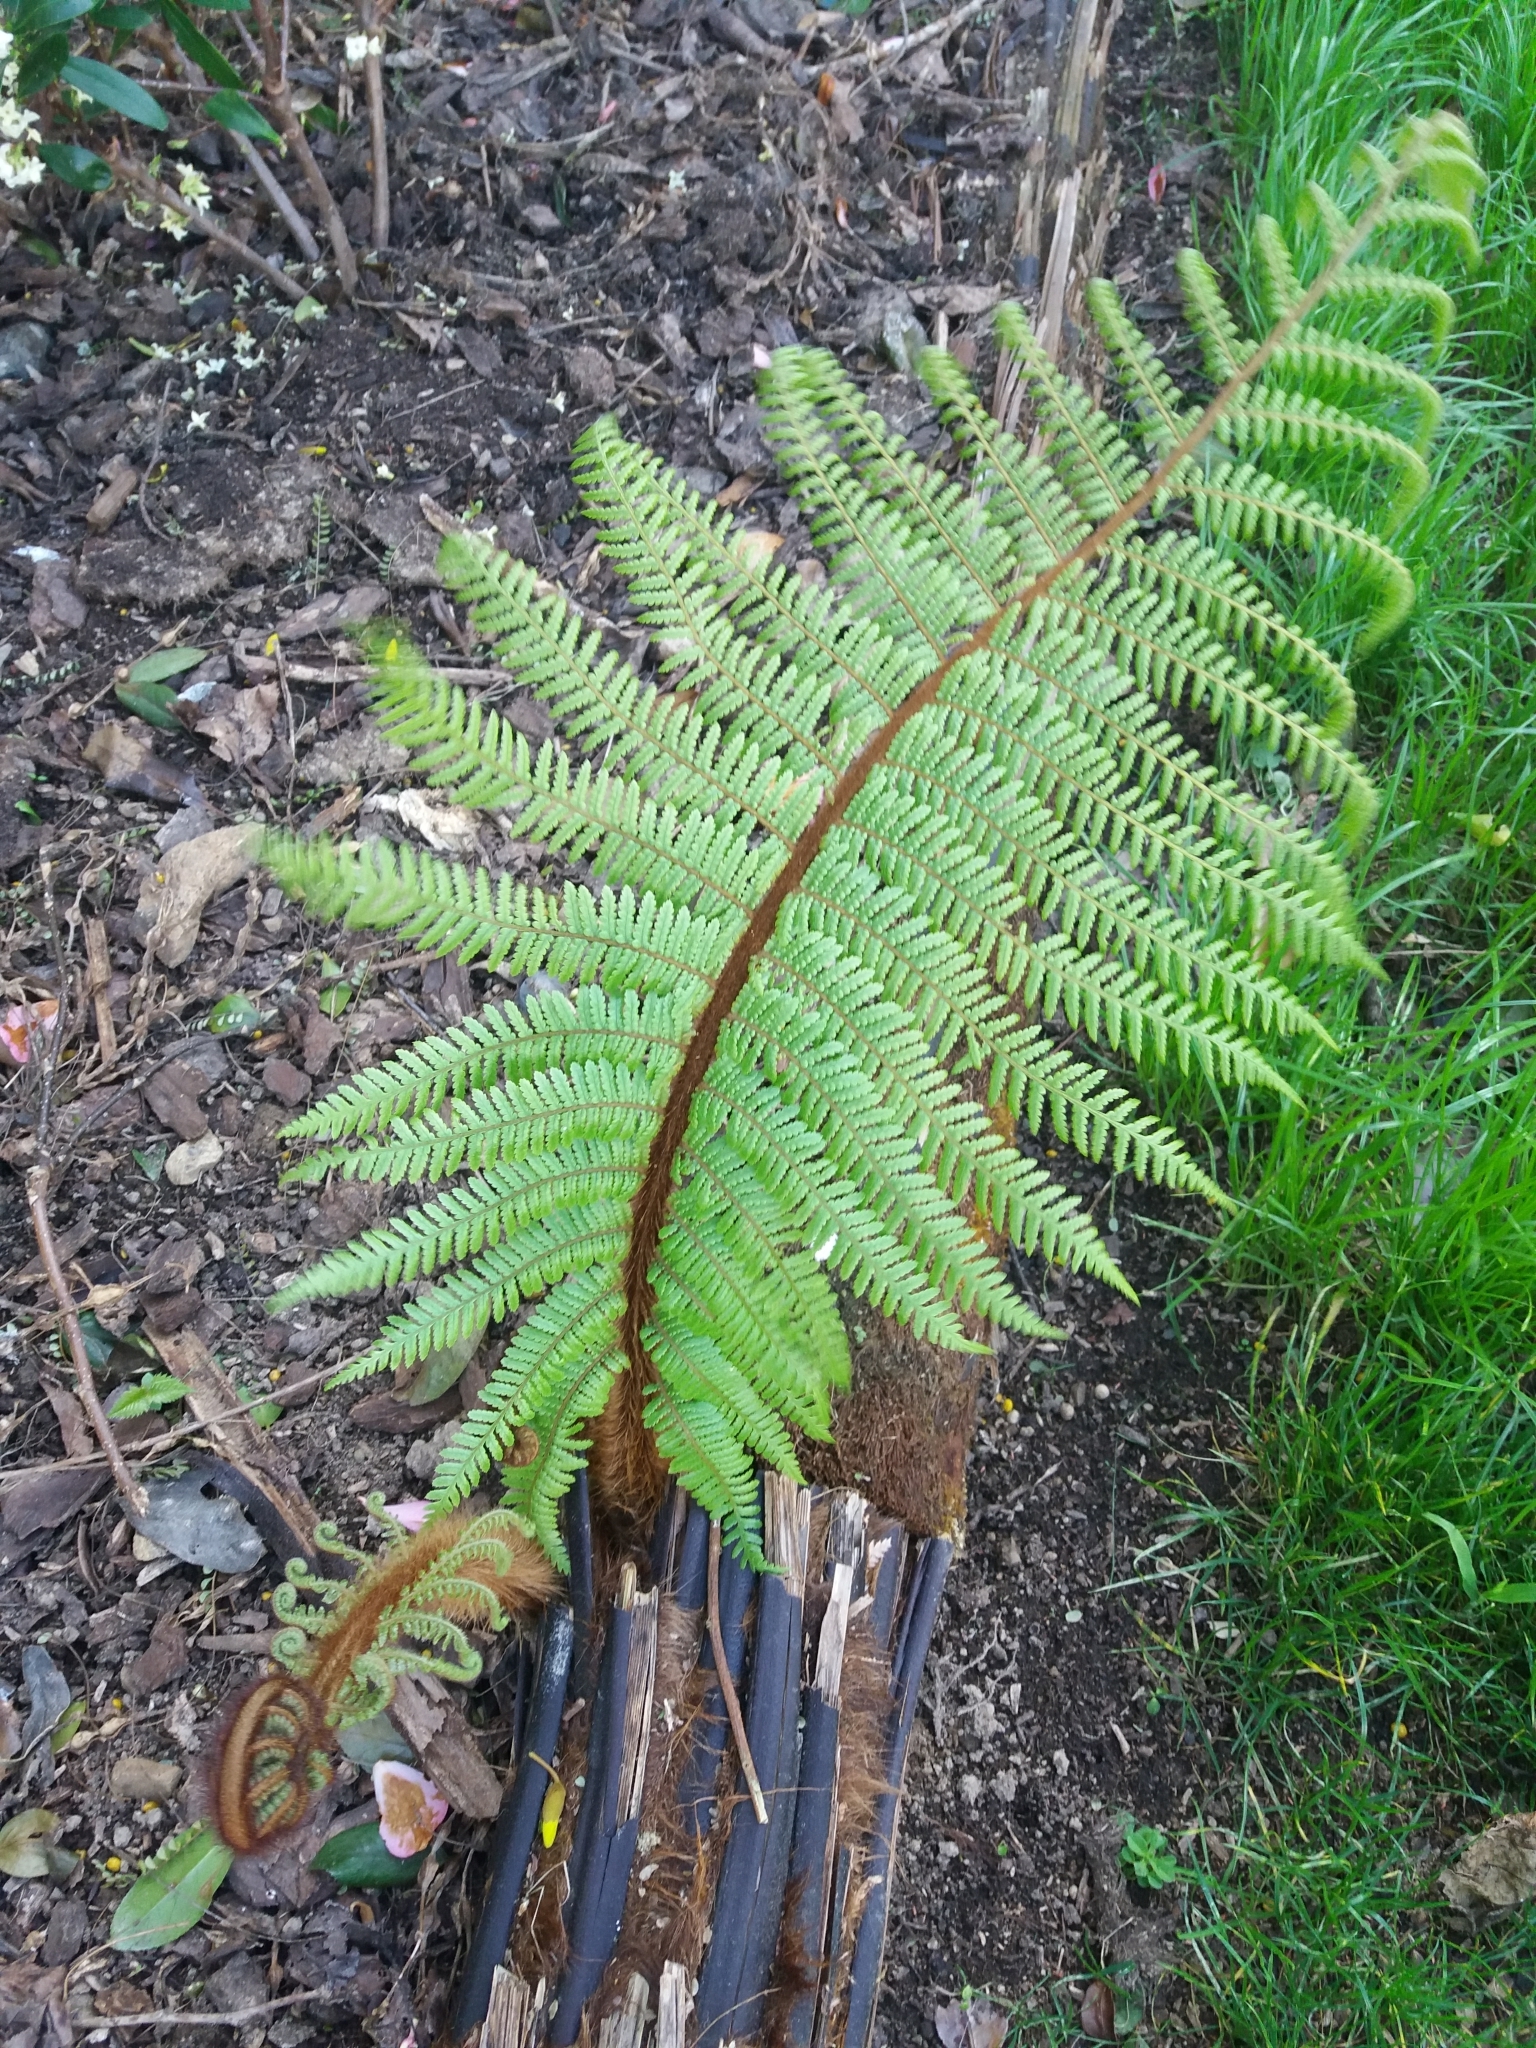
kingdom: Plantae
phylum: Tracheophyta
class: Polypodiopsida
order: Cyatheales
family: Dicksoniaceae
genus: Dicksonia
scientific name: Dicksonia squarrosa
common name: Hard treefern
